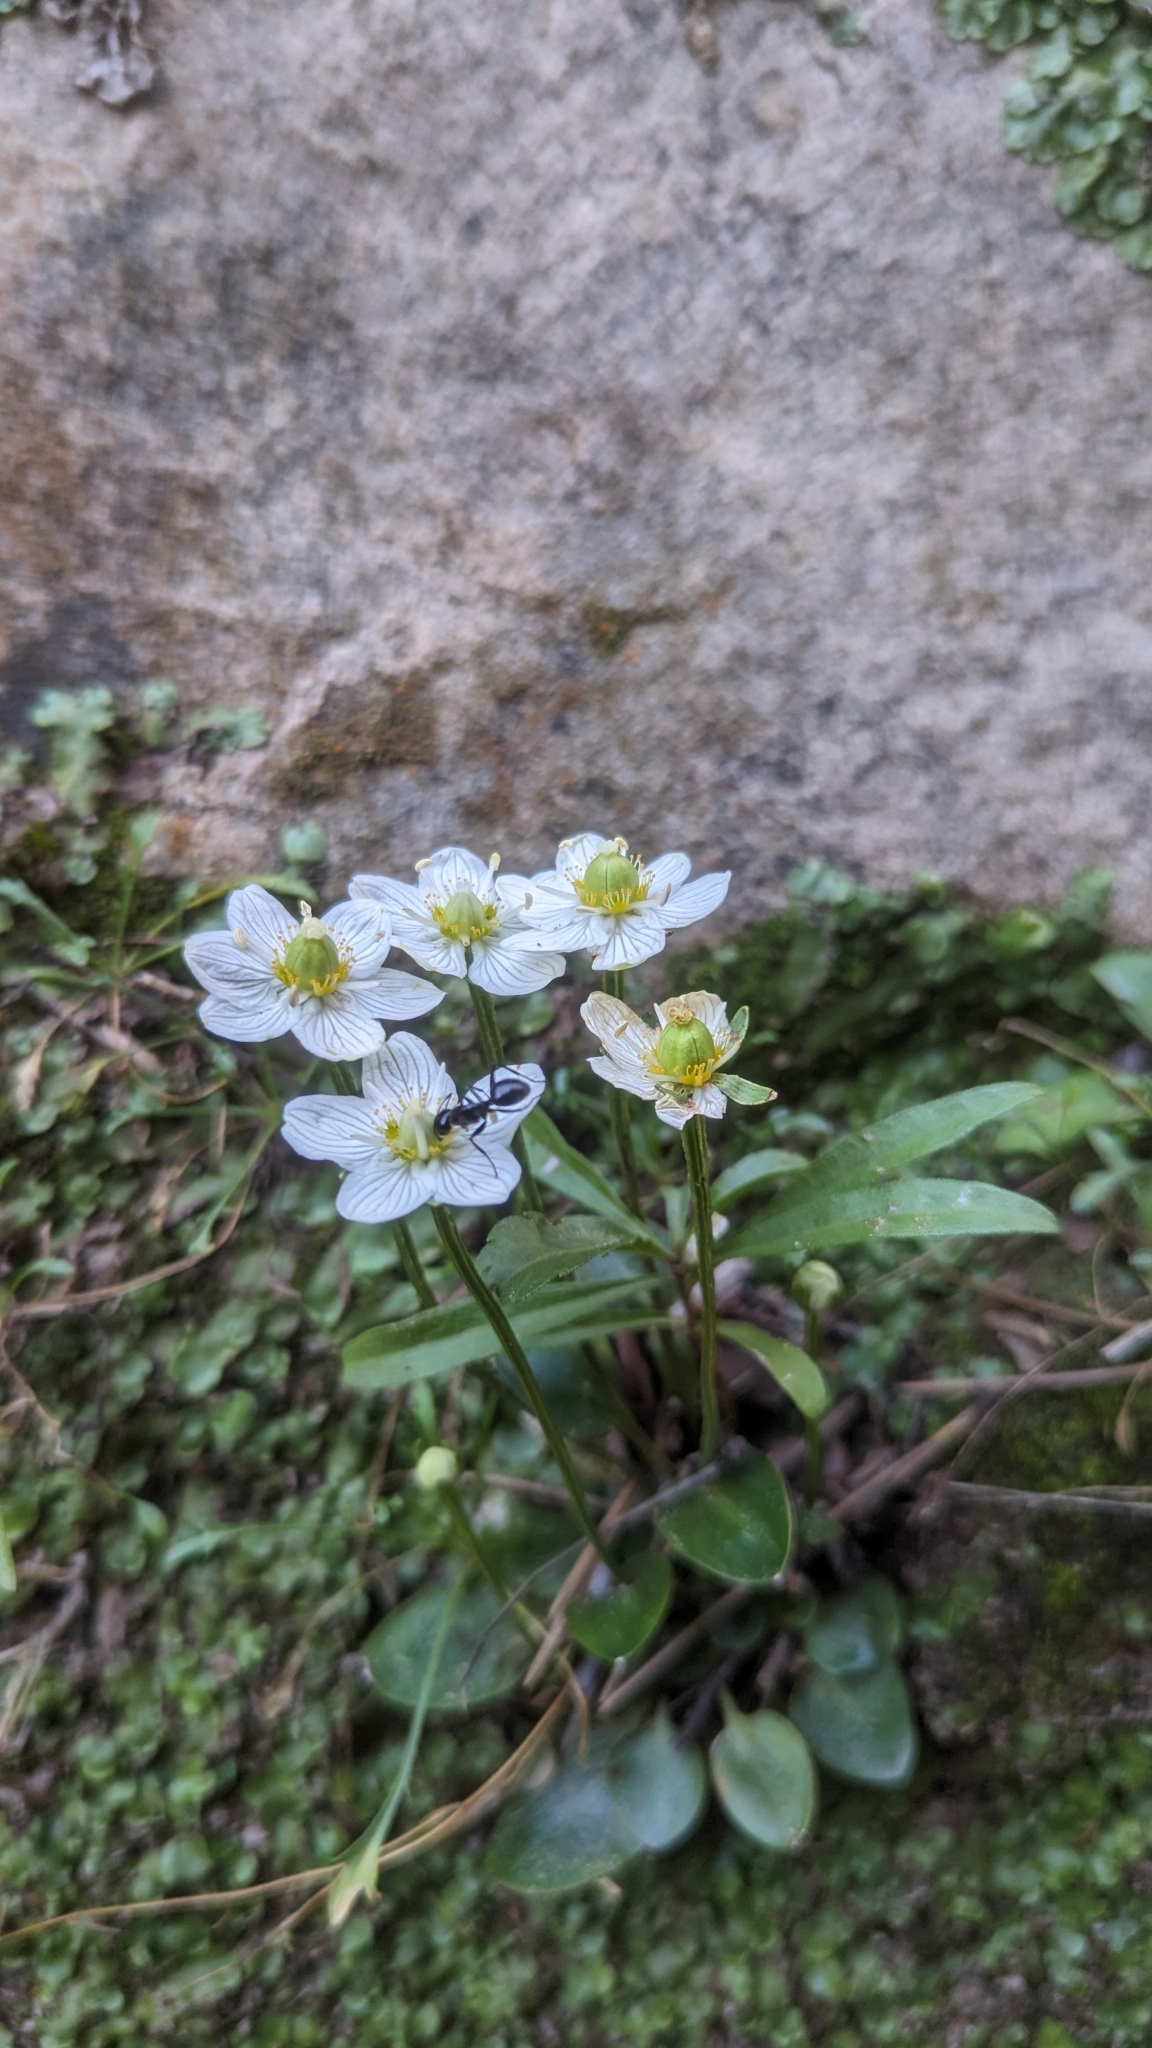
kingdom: Plantae
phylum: Tracheophyta
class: Magnoliopsida
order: Celastrales
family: Parnassiaceae
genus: Parnassia
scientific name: Parnassia palustris
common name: Grass-of-parnassus
